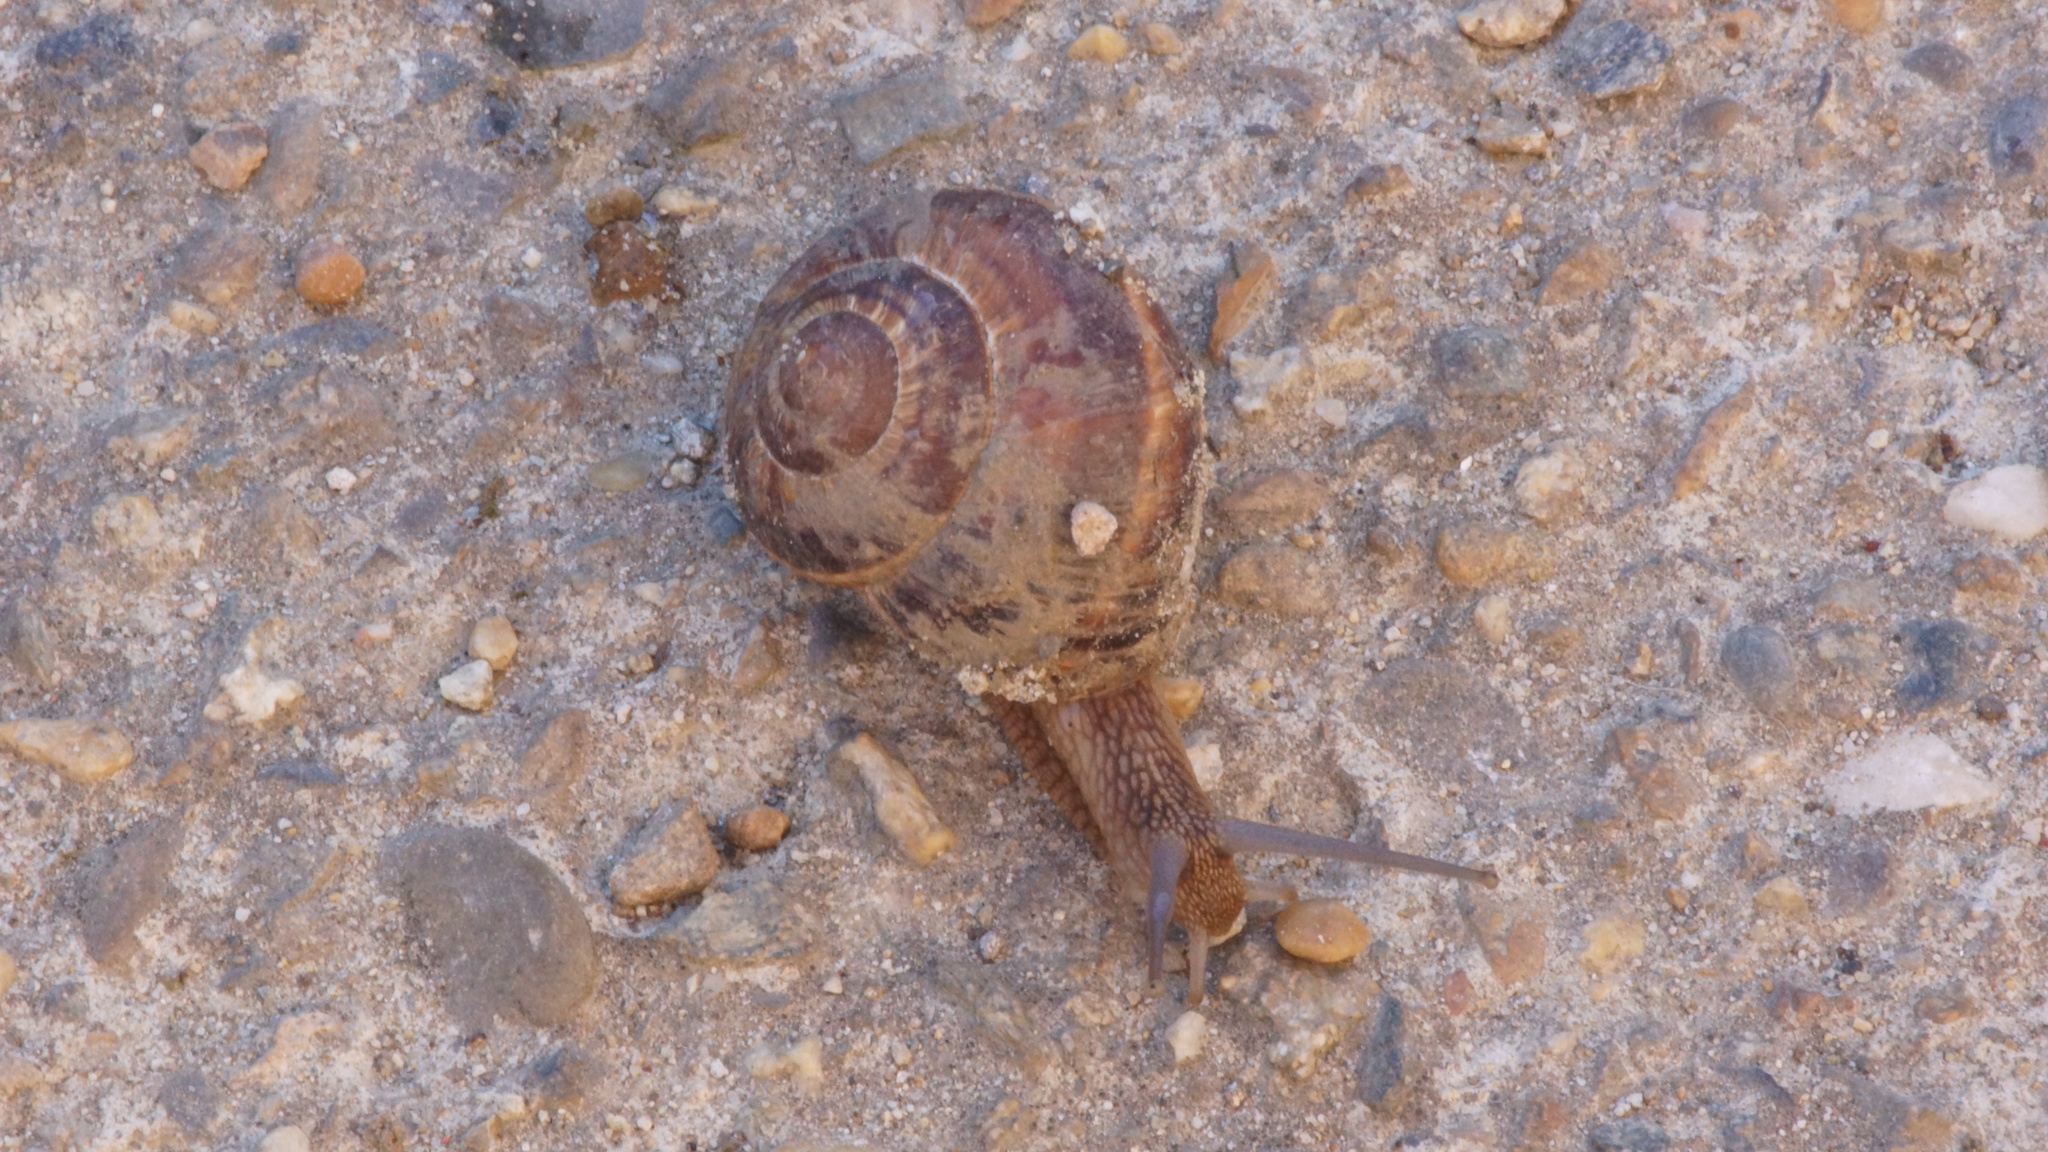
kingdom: Animalia
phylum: Mollusca
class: Gastropoda
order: Stylommatophora
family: Helicidae
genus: Helix
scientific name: Helix lucorum
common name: Turkish snail
